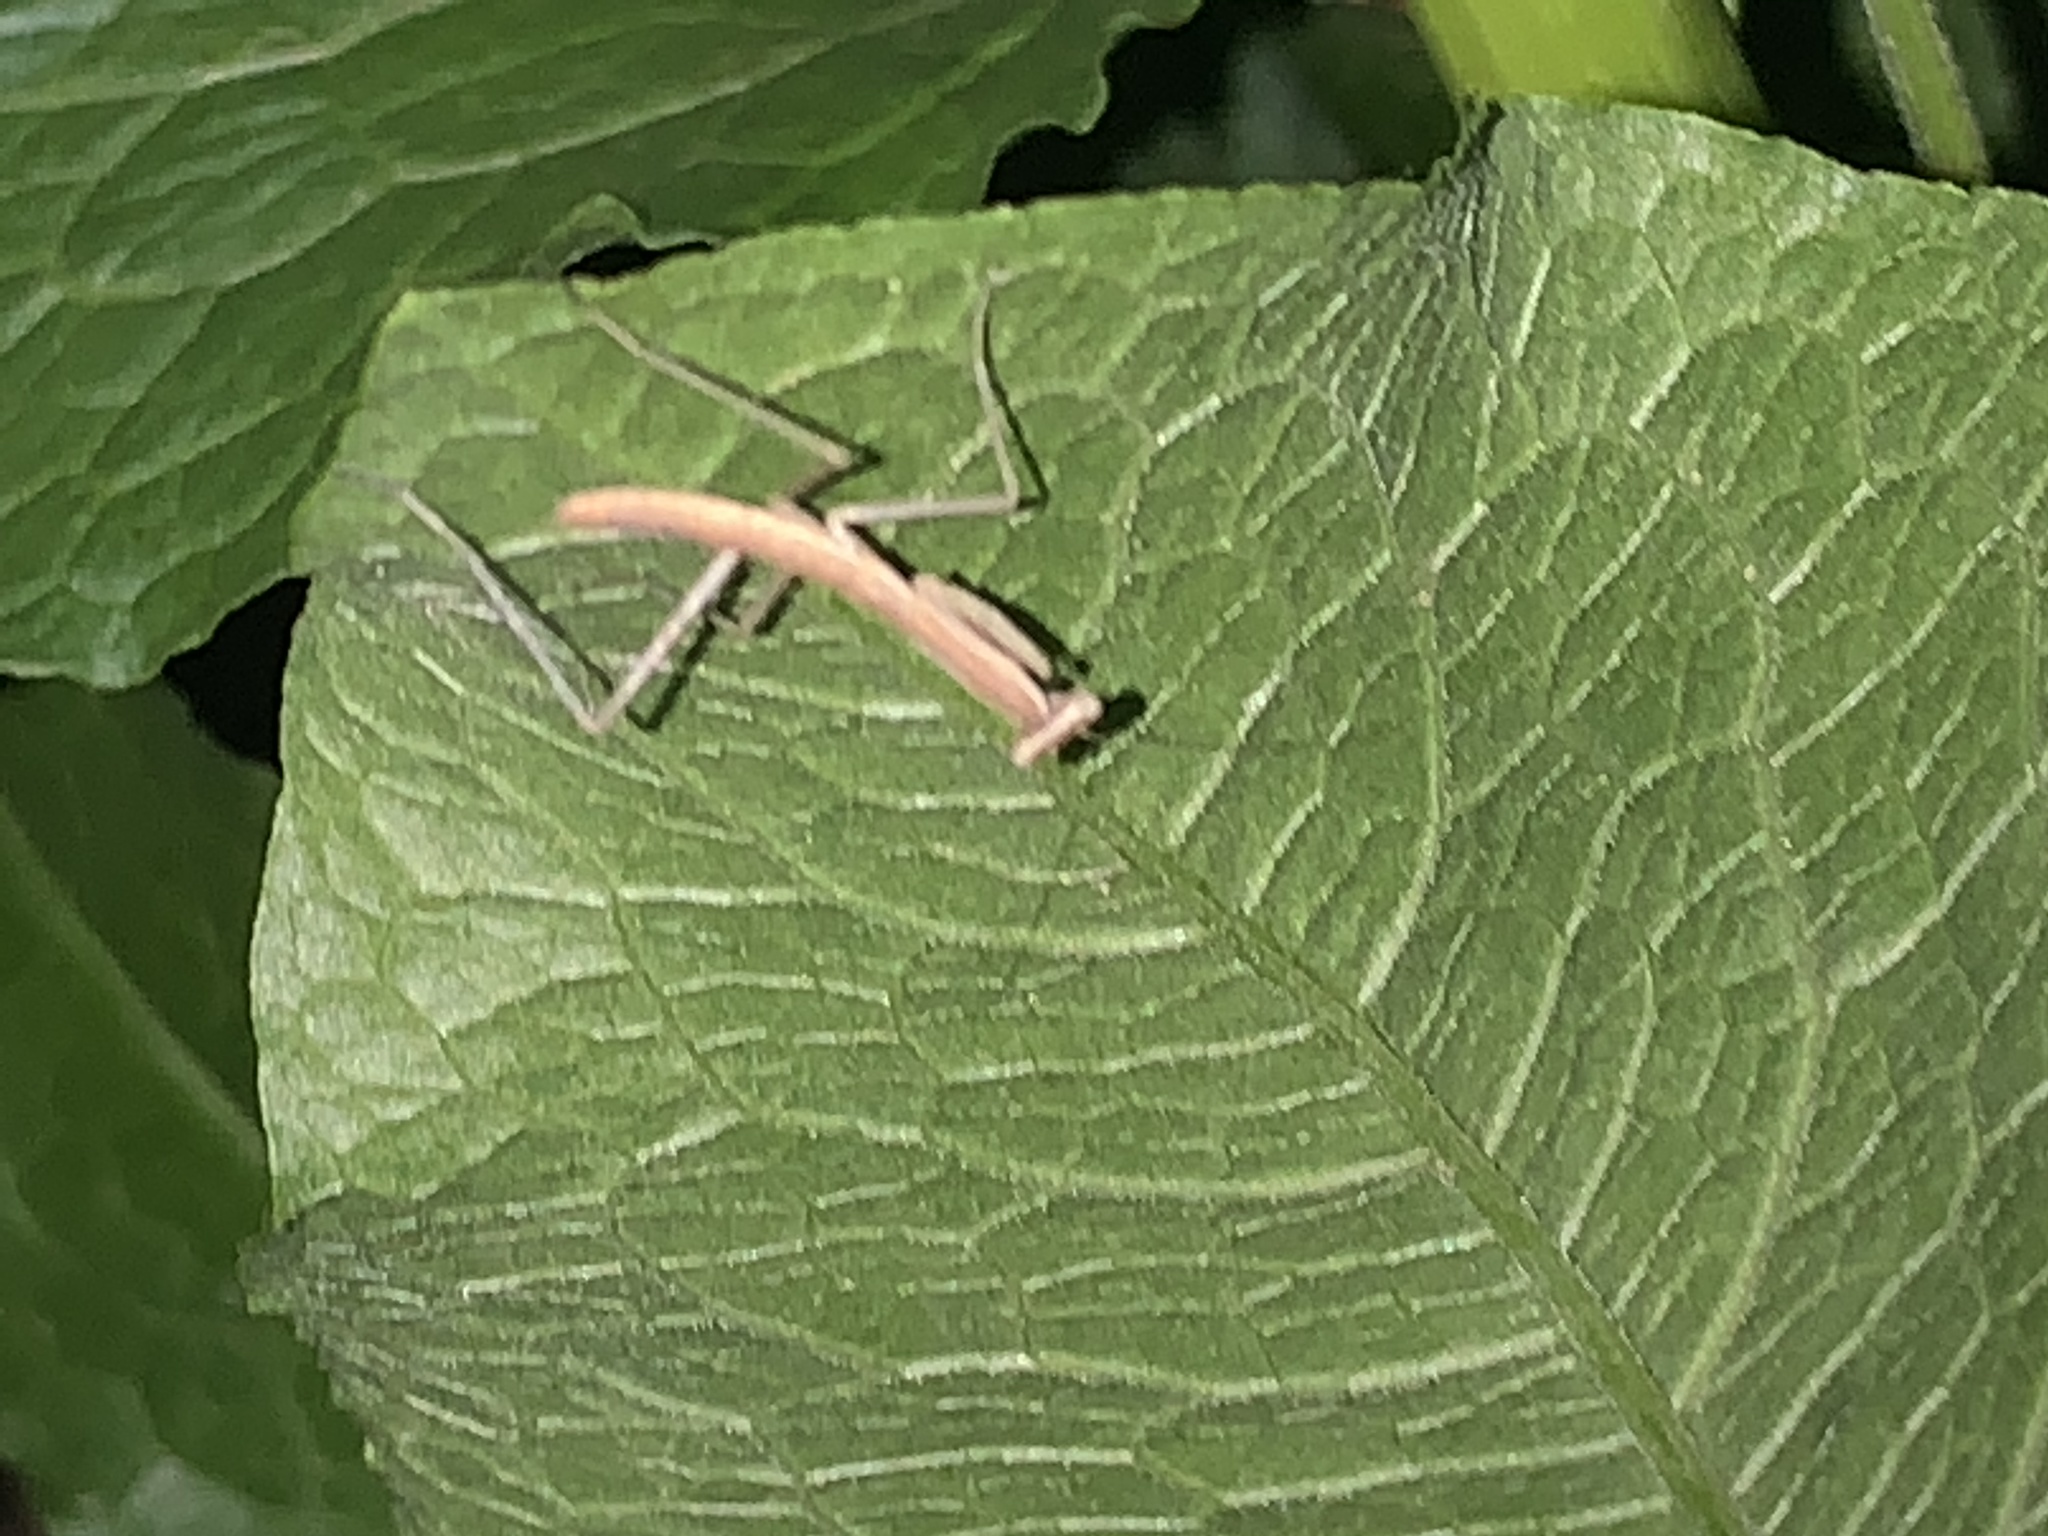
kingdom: Animalia
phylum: Arthropoda
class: Insecta
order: Mantodea
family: Mantidae
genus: Tenodera
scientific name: Tenodera sinensis
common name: Chinese mantis
